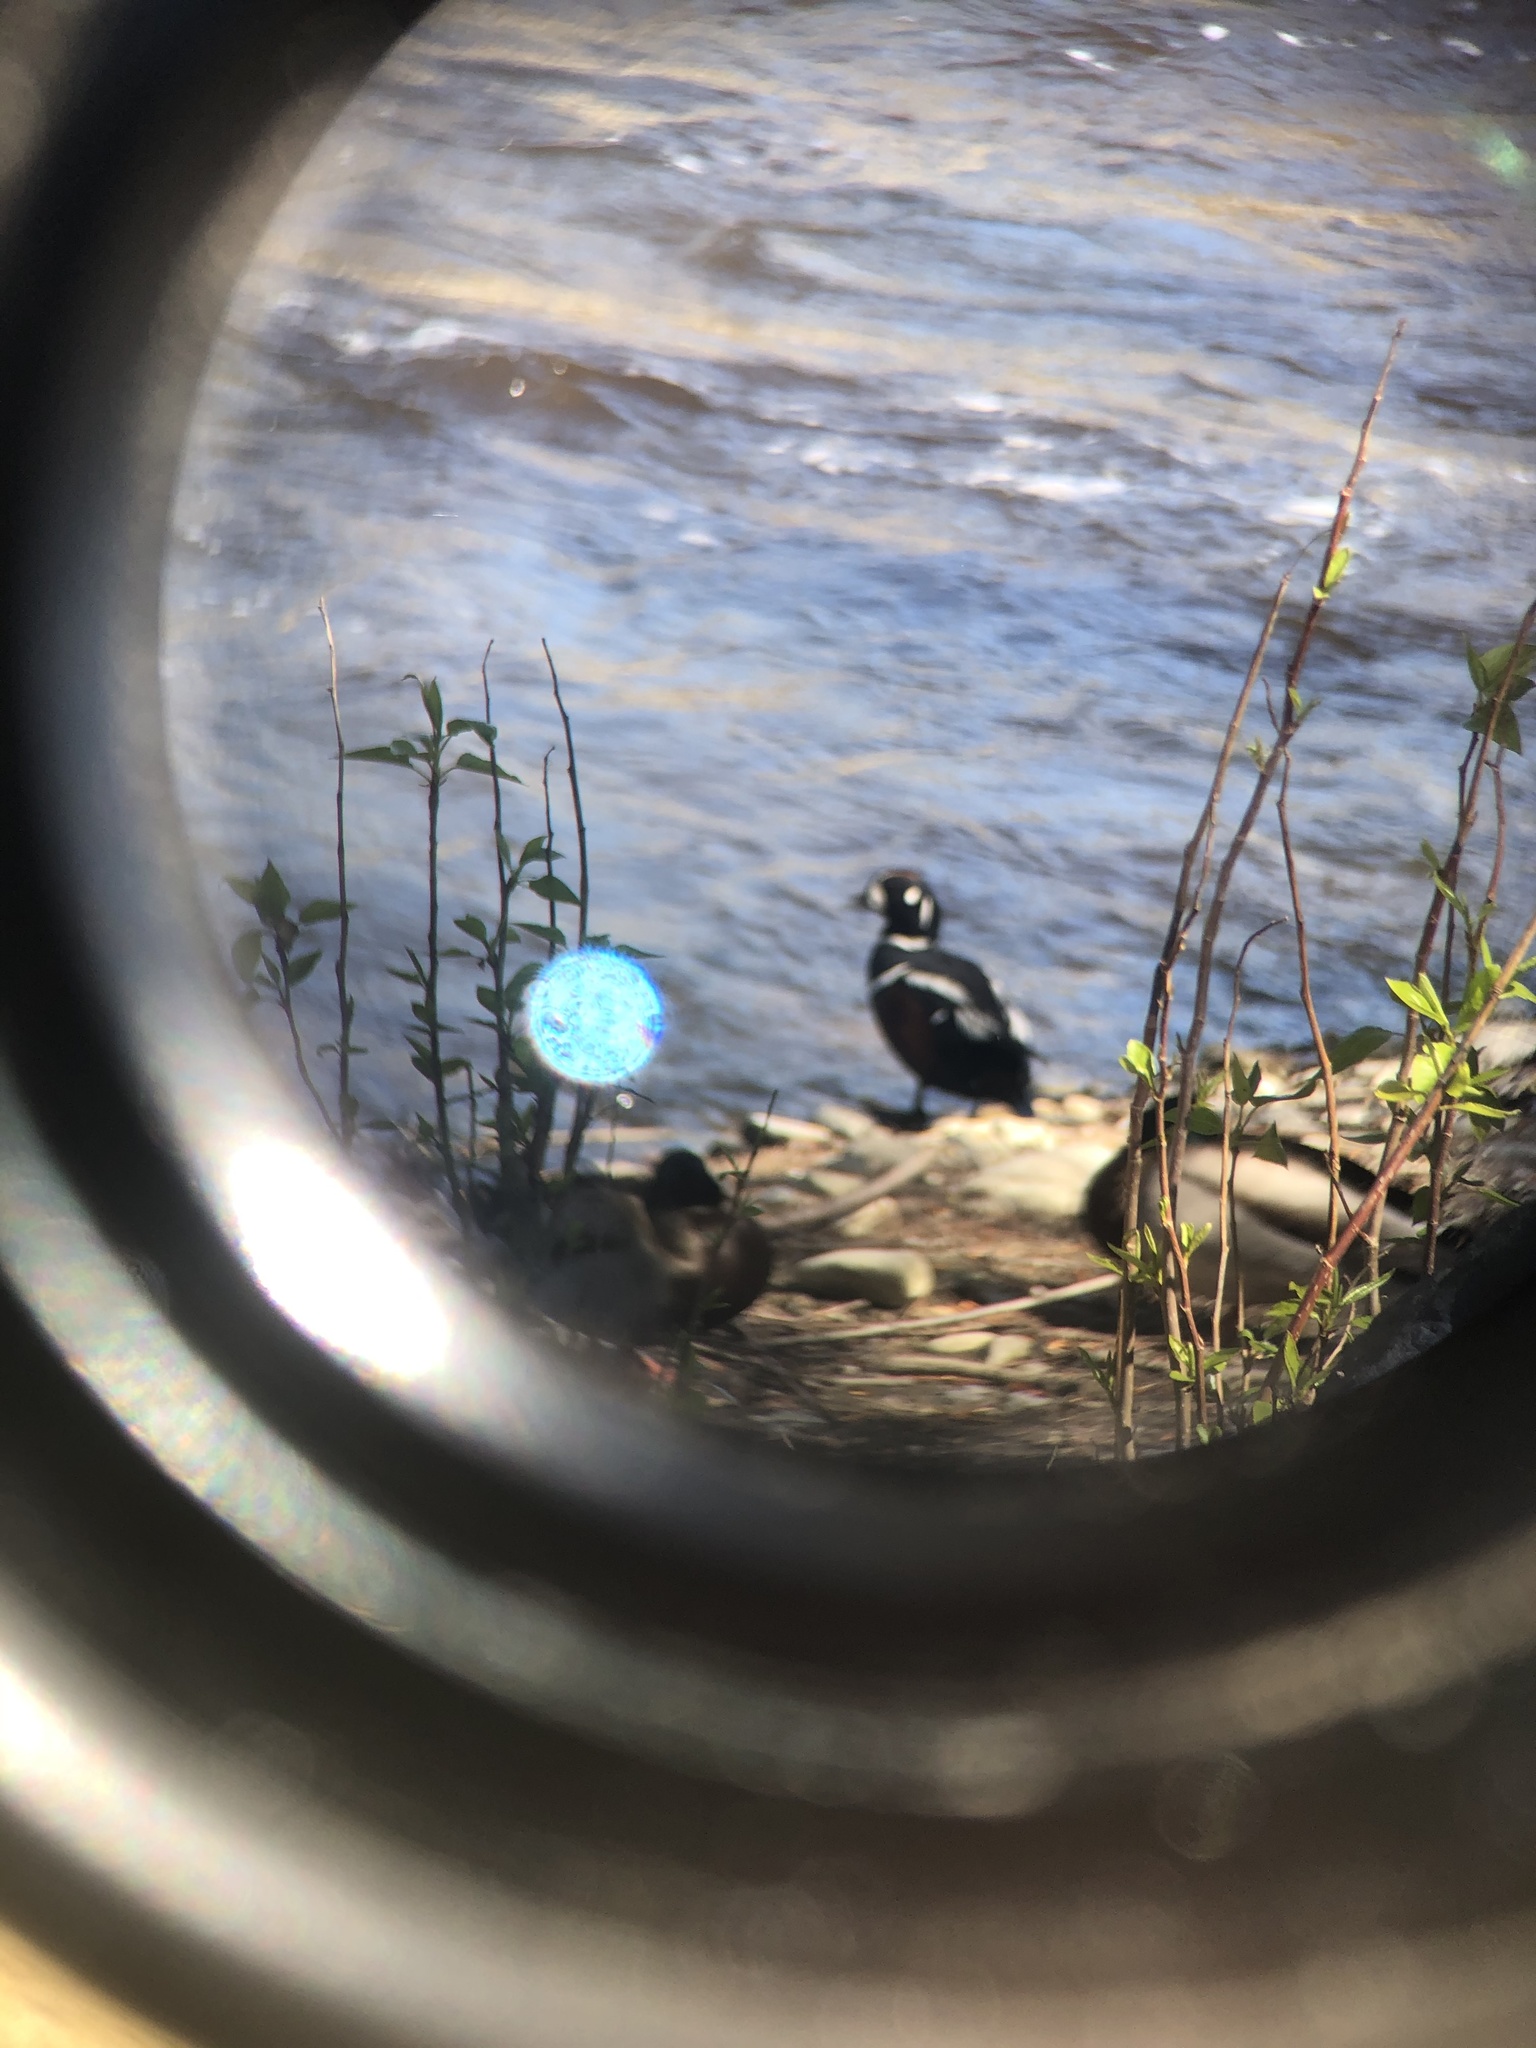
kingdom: Animalia
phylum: Chordata
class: Aves
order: Anseriformes
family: Anatidae
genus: Histrionicus
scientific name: Histrionicus histrionicus
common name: Harlequin duck
